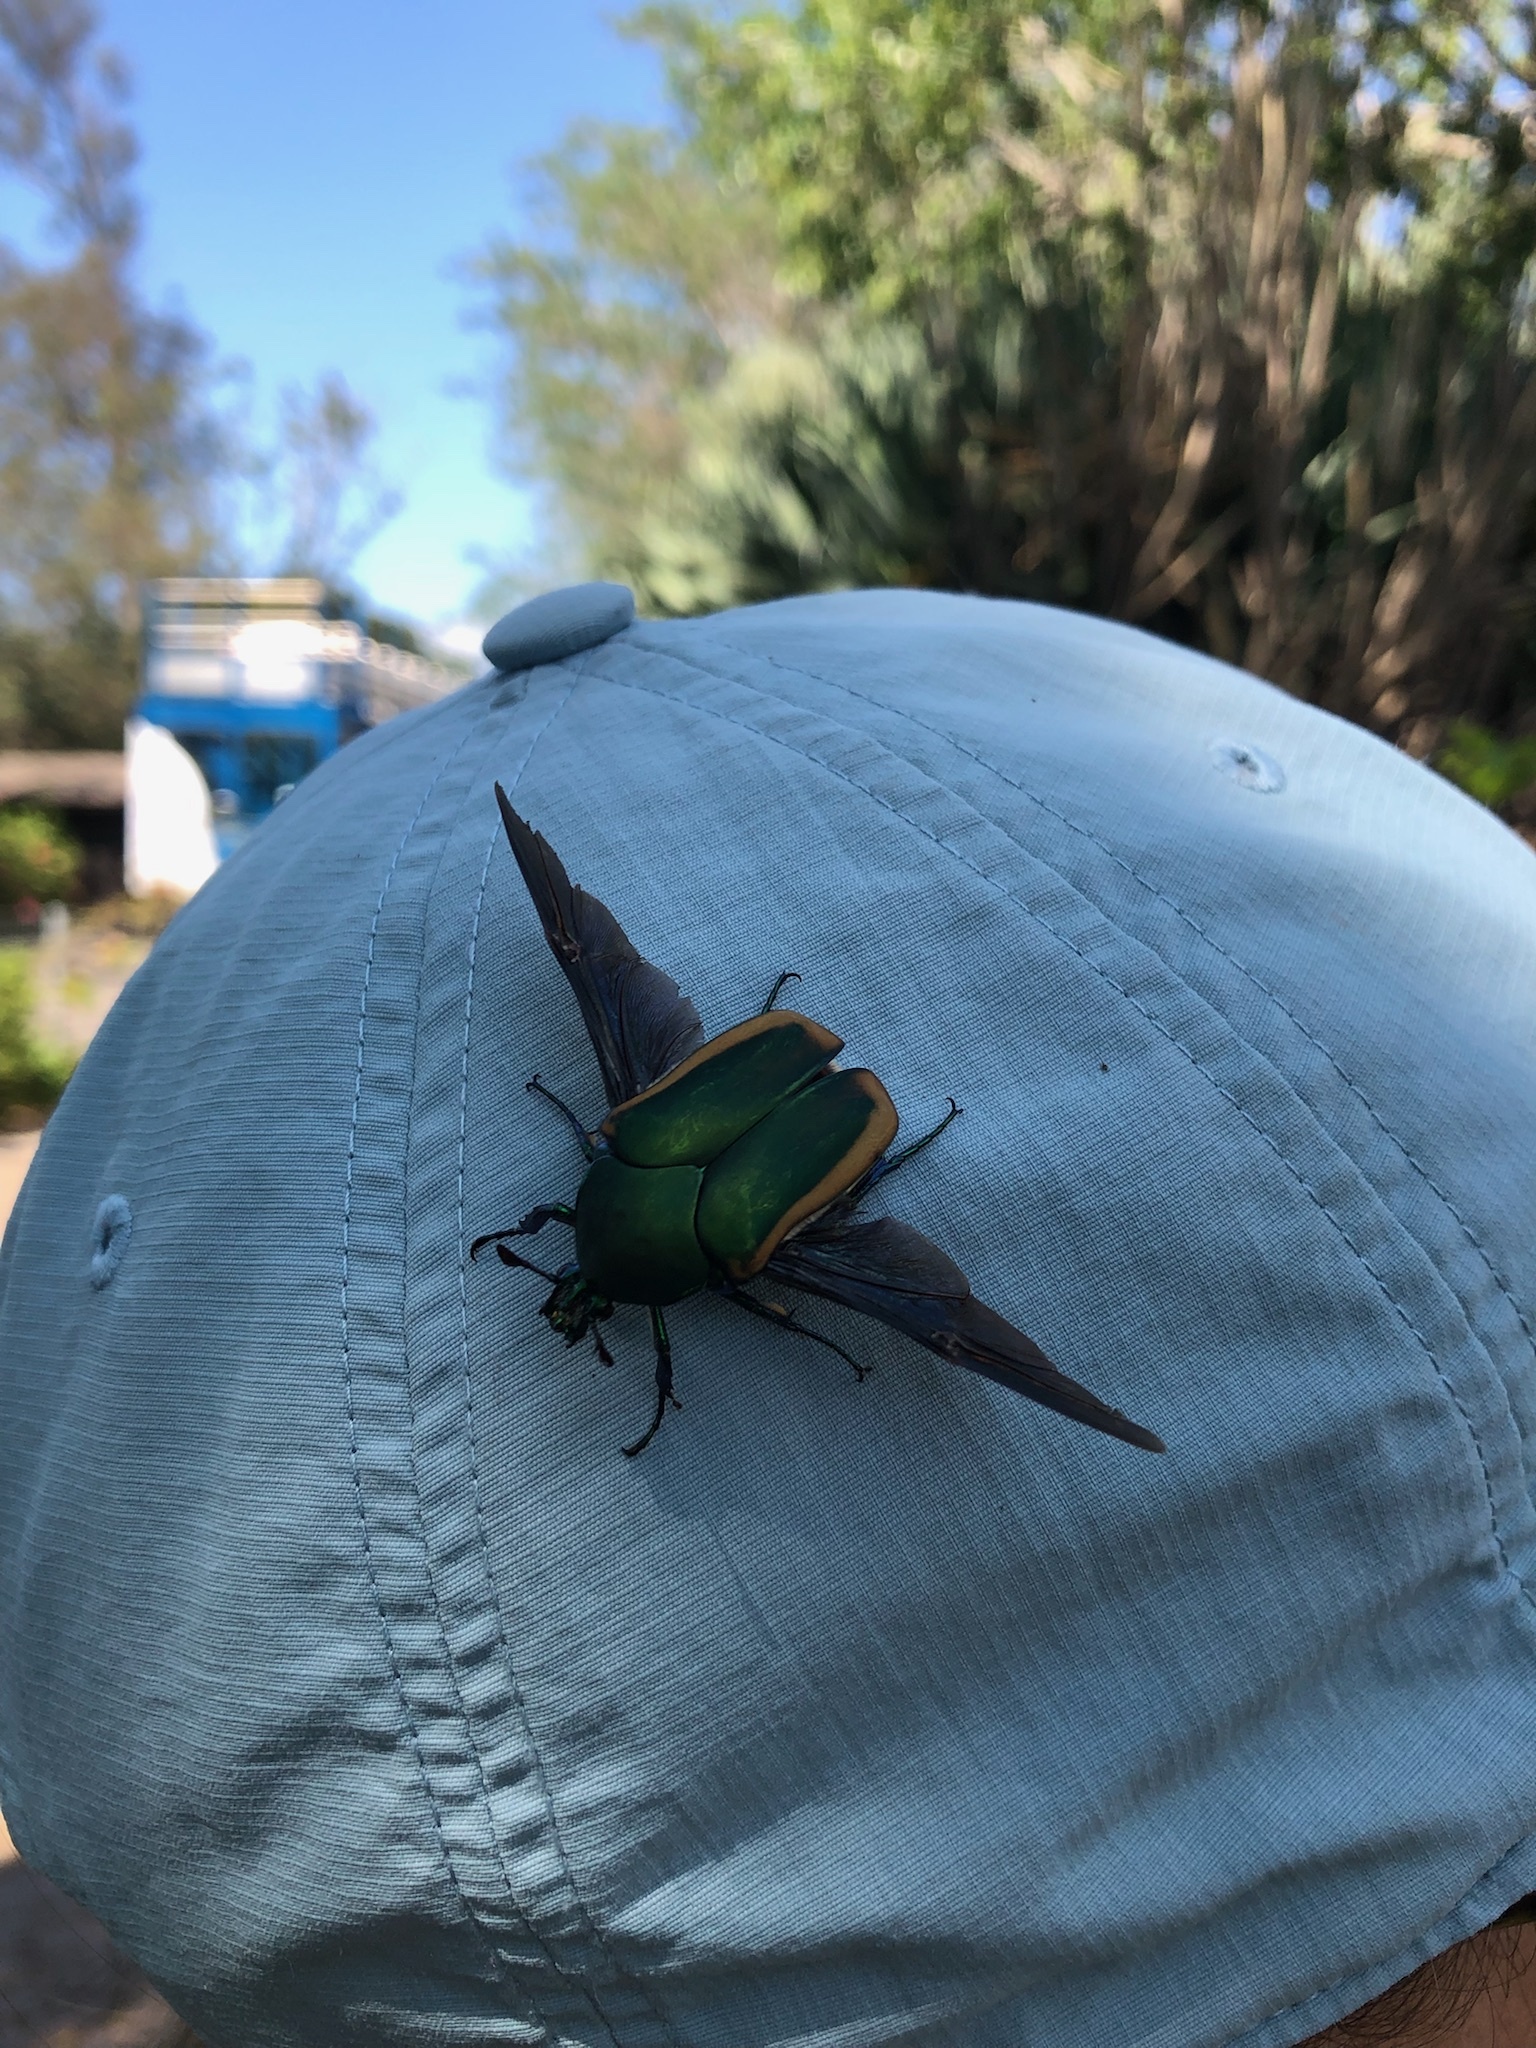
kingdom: Animalia
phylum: Arthropoda
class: Insecta
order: Coleoptera
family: Scarabaeidae
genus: Cotinis
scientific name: Cotinis mutabilis
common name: Figeater beetle
